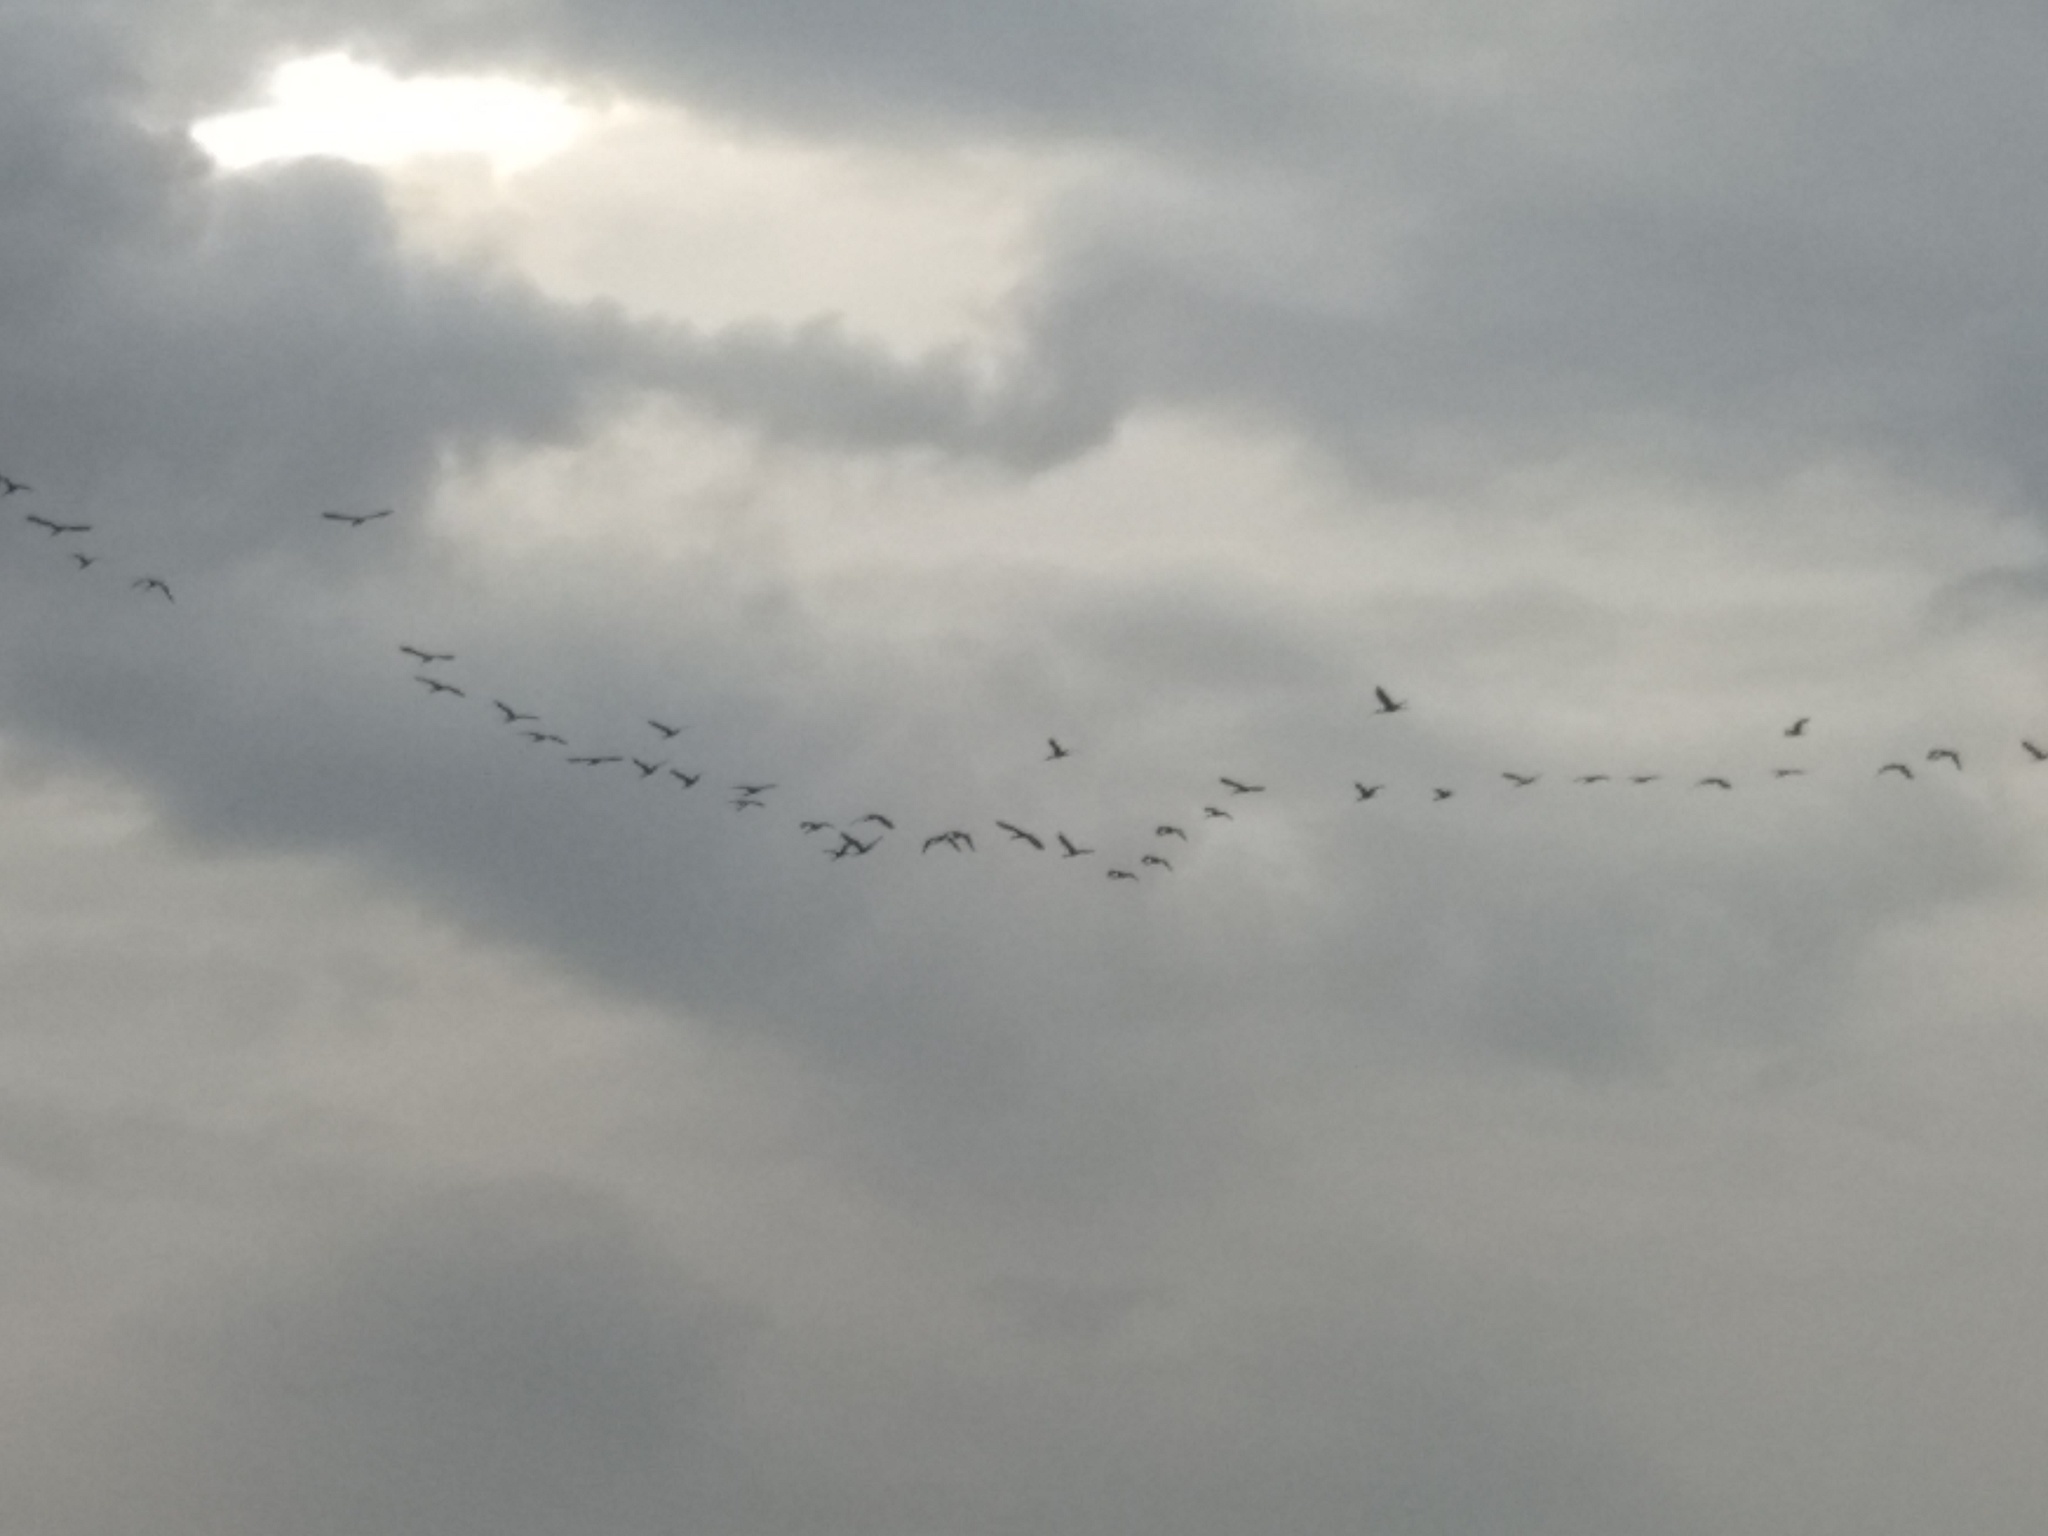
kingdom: Animalia
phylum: Chordata
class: Aves
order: Pelecaniformes
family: Threskiornithidae
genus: Plegadis
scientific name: Plegadis falcinellus
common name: Glossy ibis
